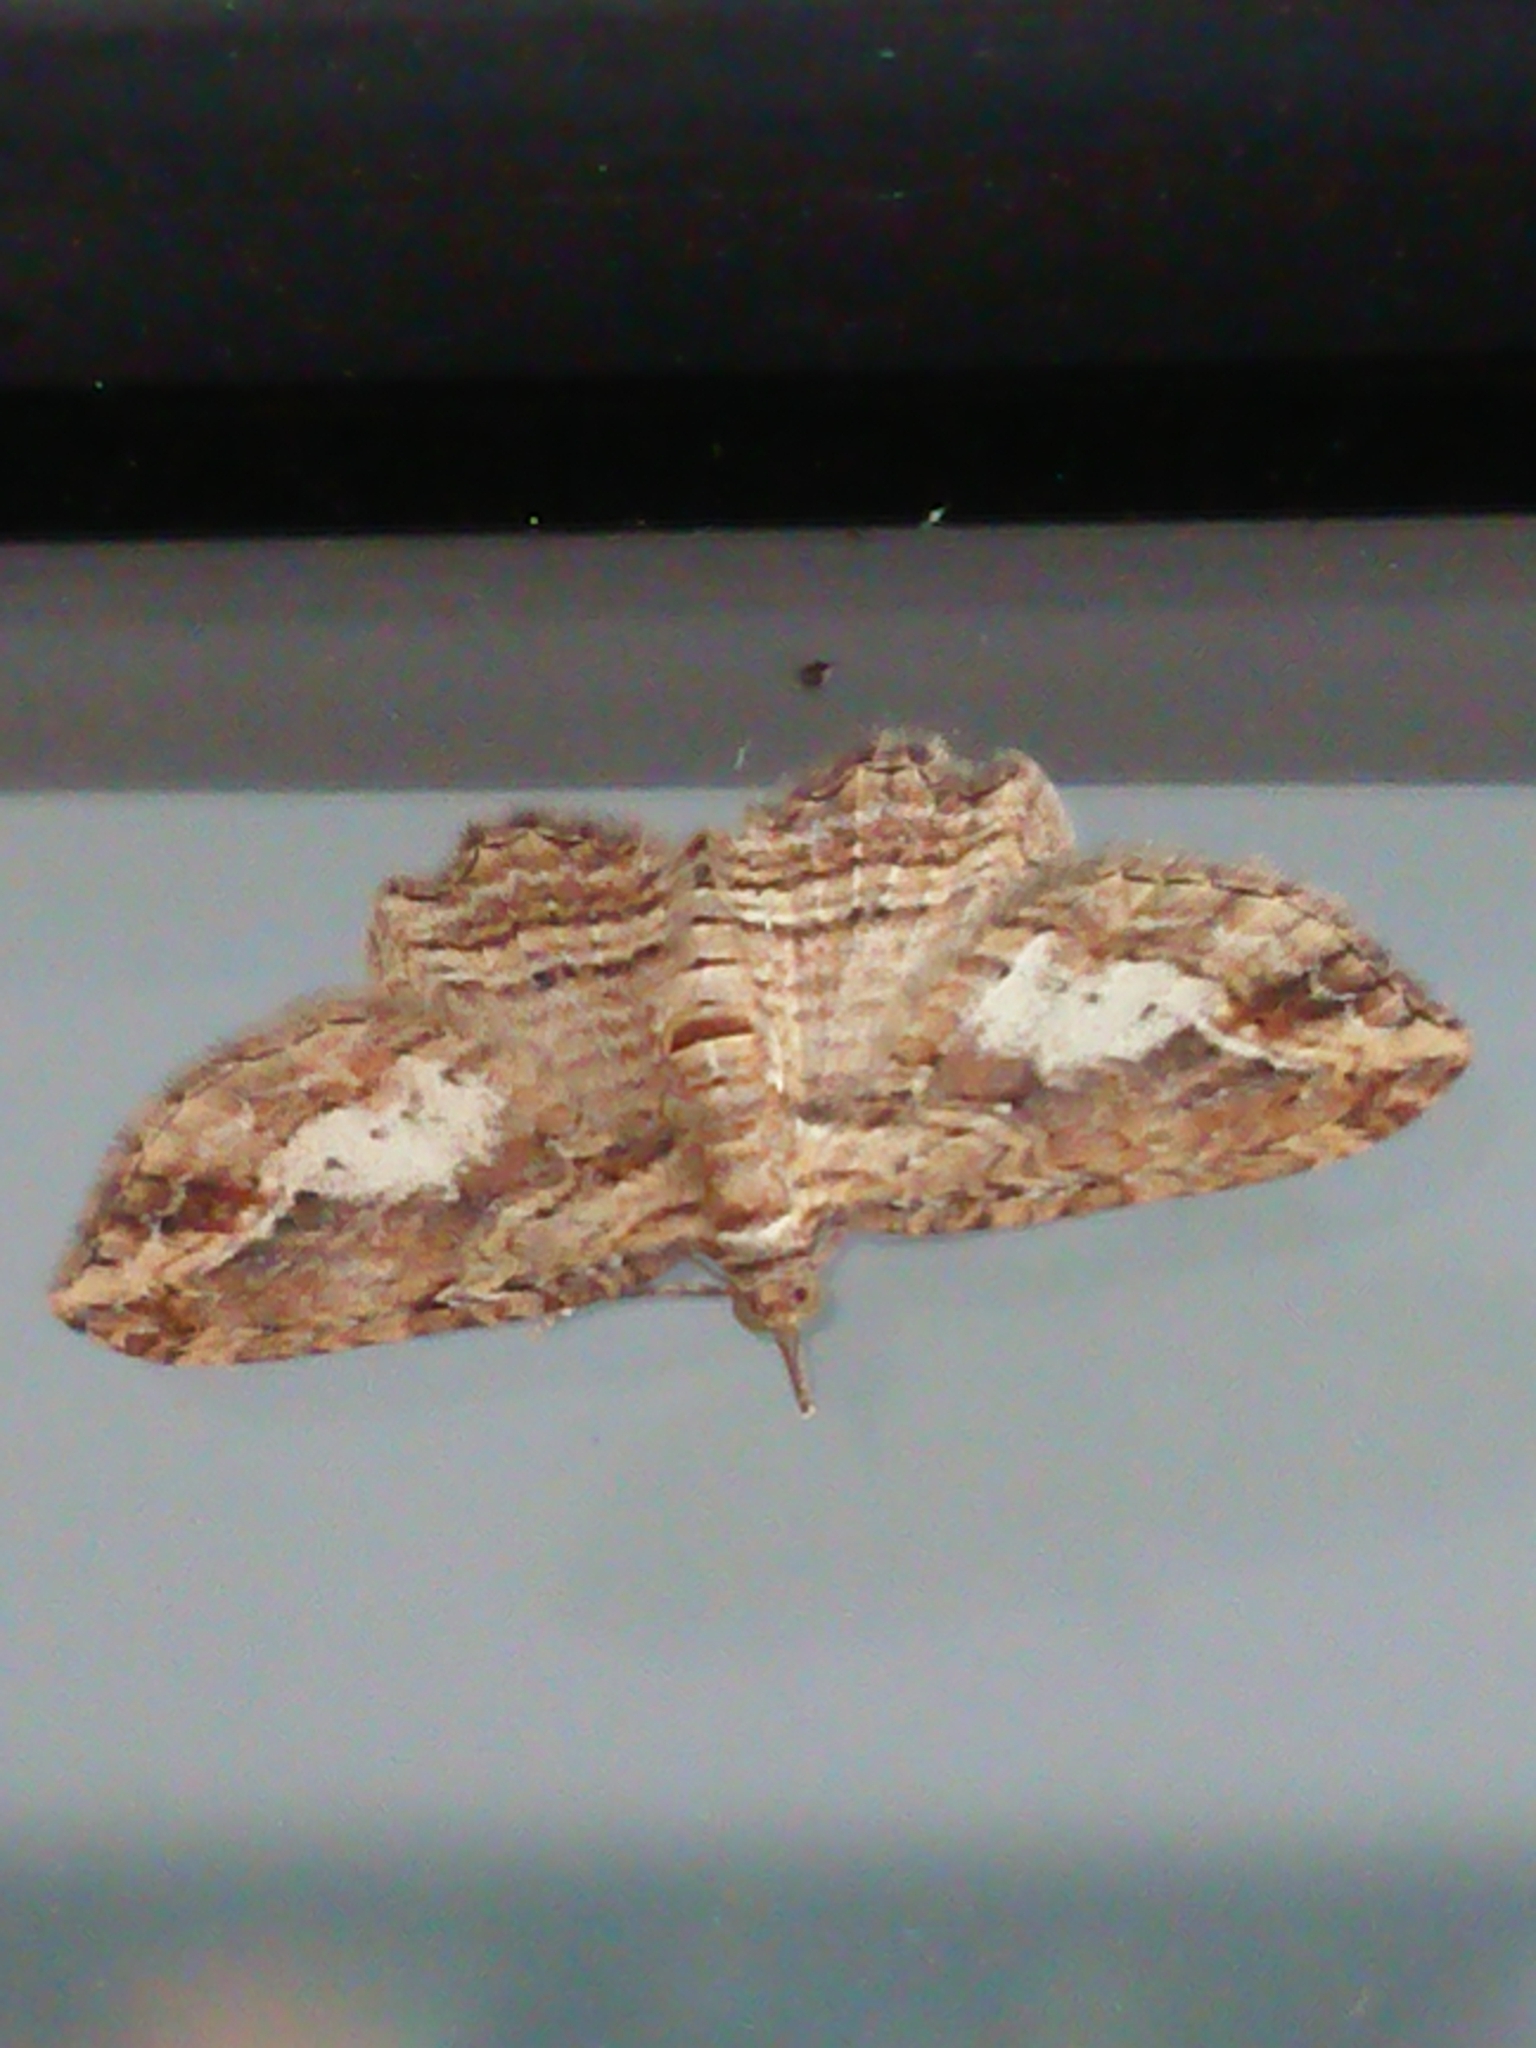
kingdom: Animalia
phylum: Arthropoda
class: Insecta
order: Lepidoptera
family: Geometridae
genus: Chloroclystis
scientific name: Chloroclystis filata
